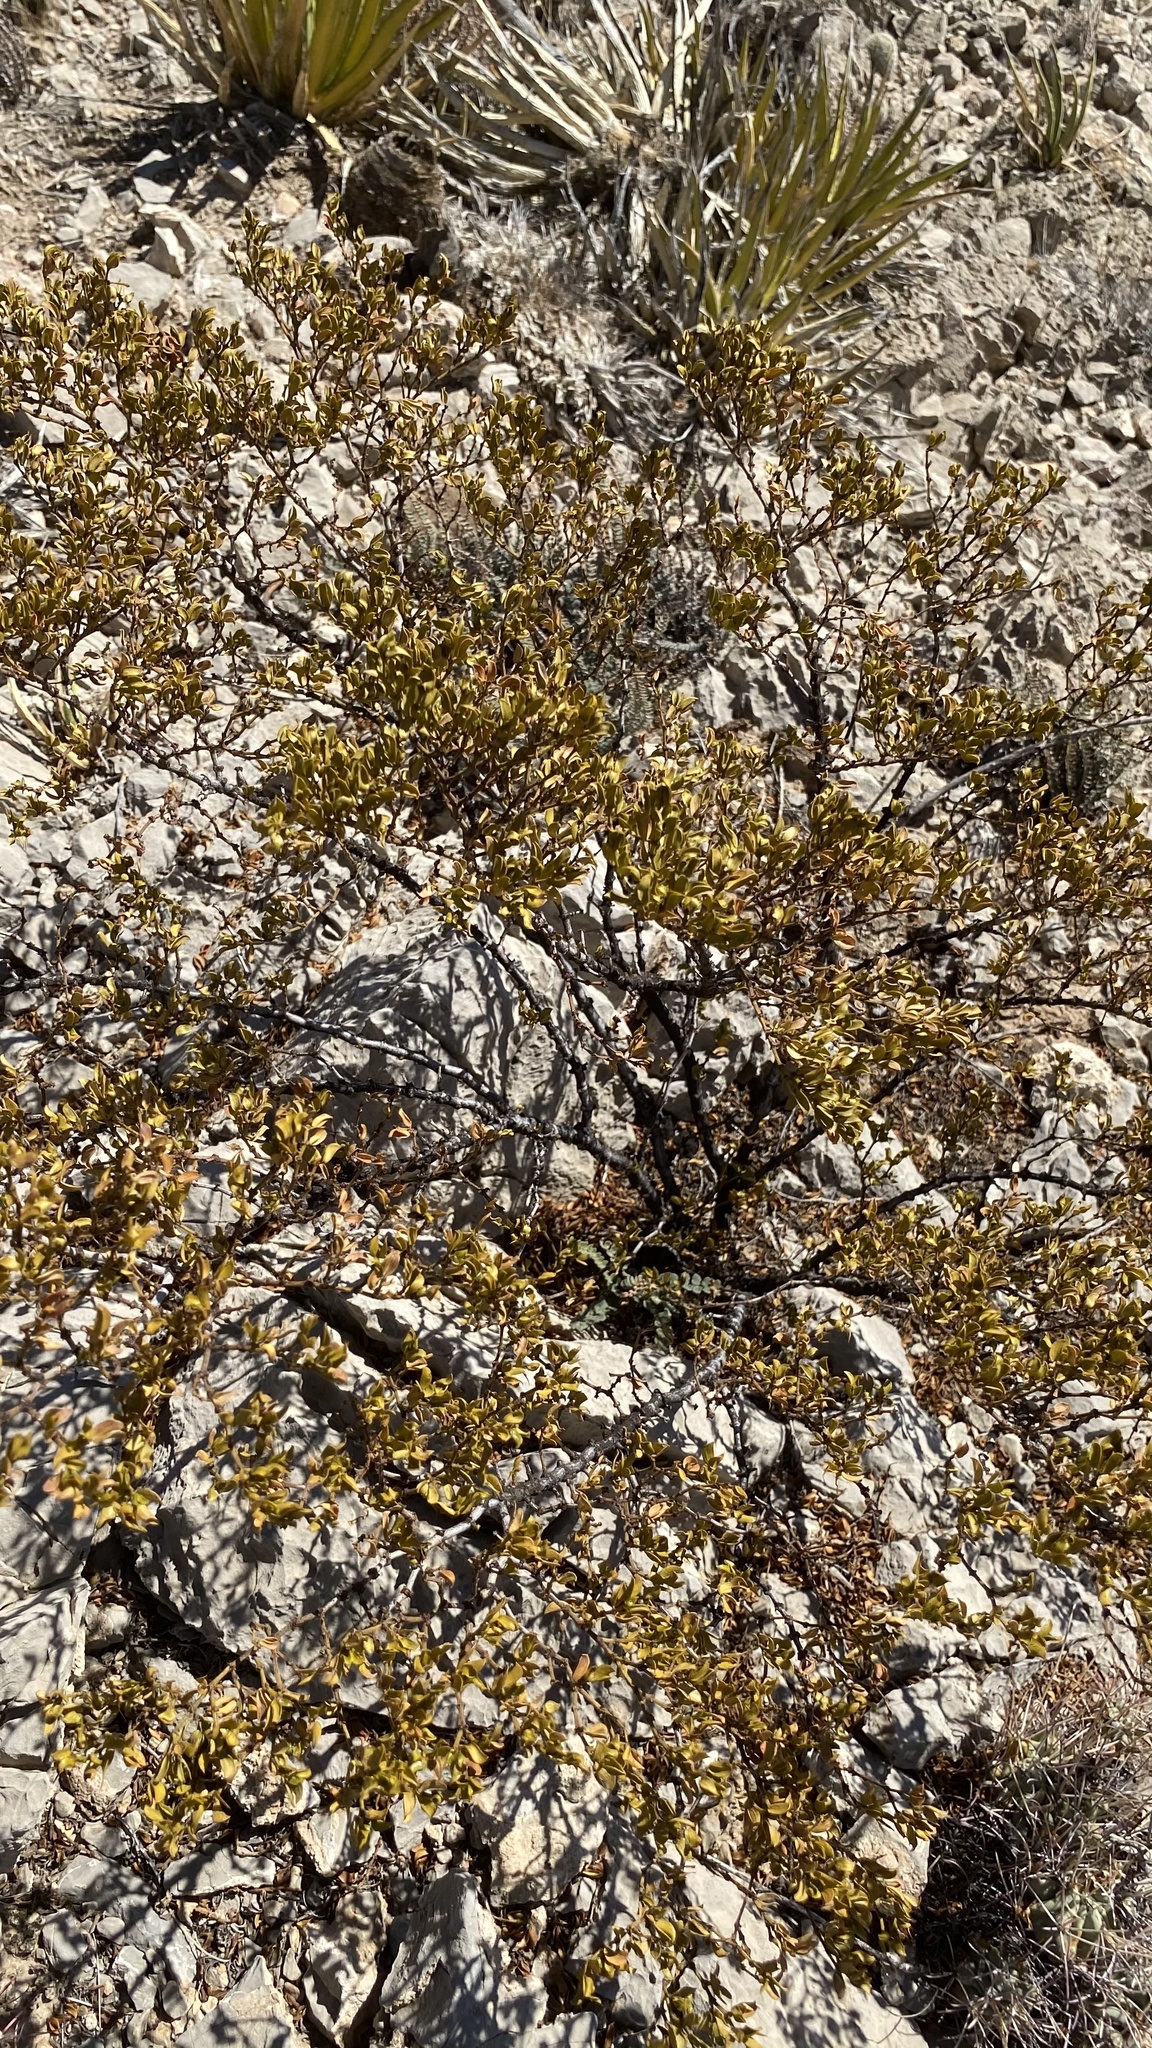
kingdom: Plantae
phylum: Tracheophyta
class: Magnoliopsida
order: Zygophyllales
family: Zygophyllaceae
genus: Larrea
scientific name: Larrea tridentata
